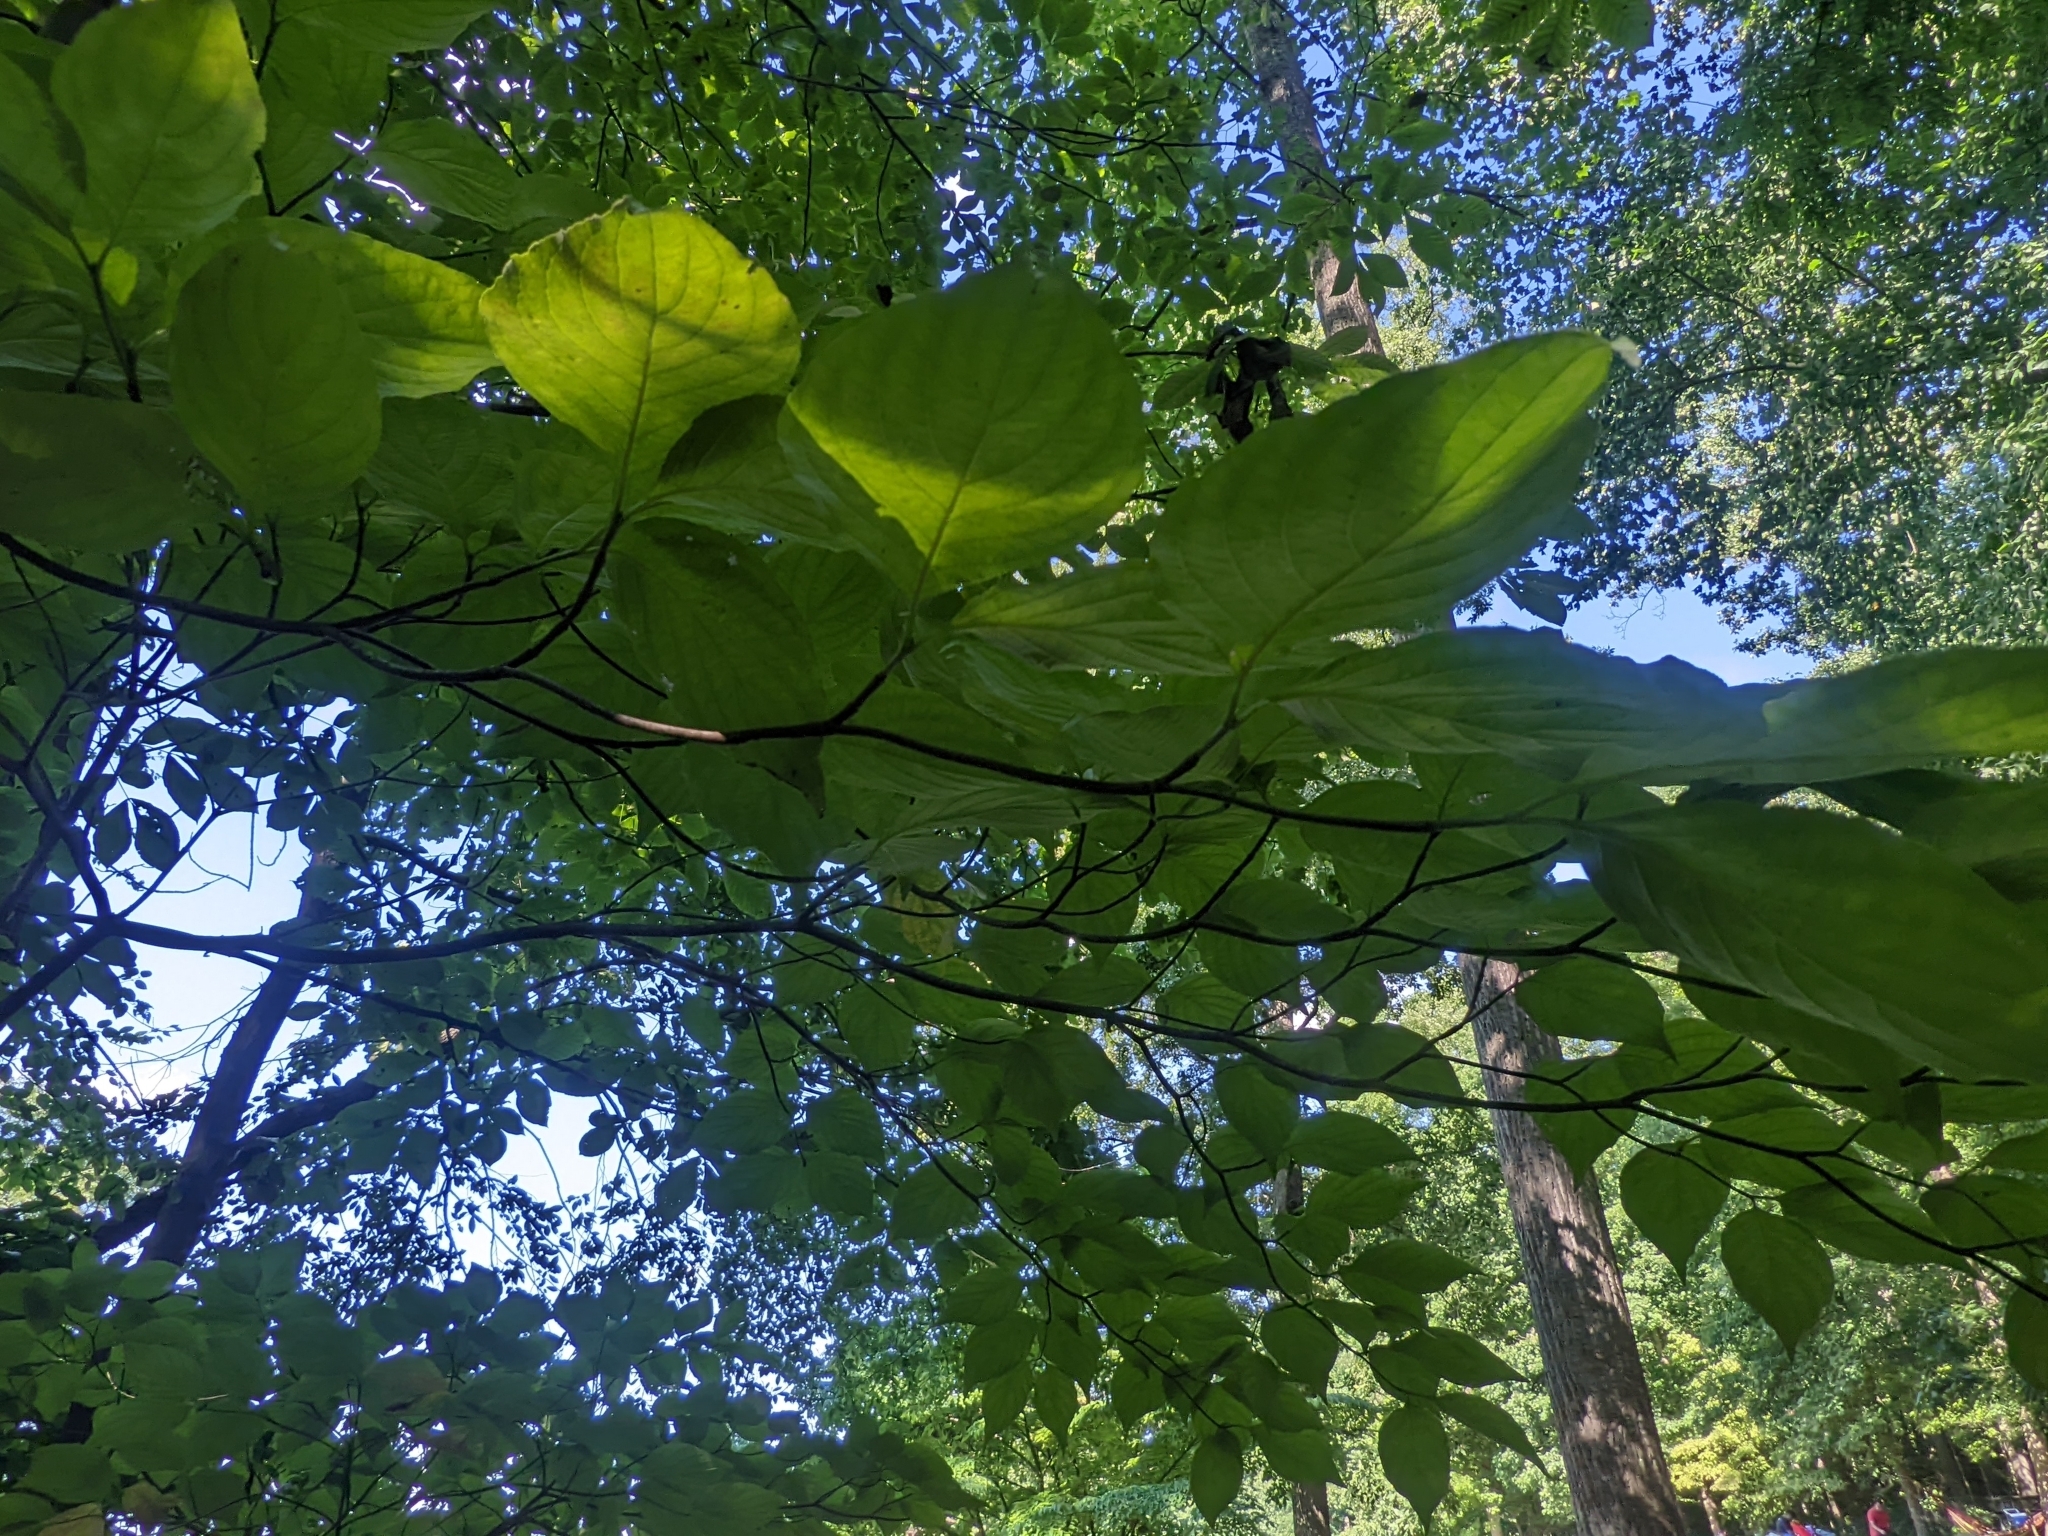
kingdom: Plantae
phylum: Tracheophyta
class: Magnoliopsida
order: Cornales
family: Cornaceae
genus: Cornus
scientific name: Cornus florida
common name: Flowering dogwood
